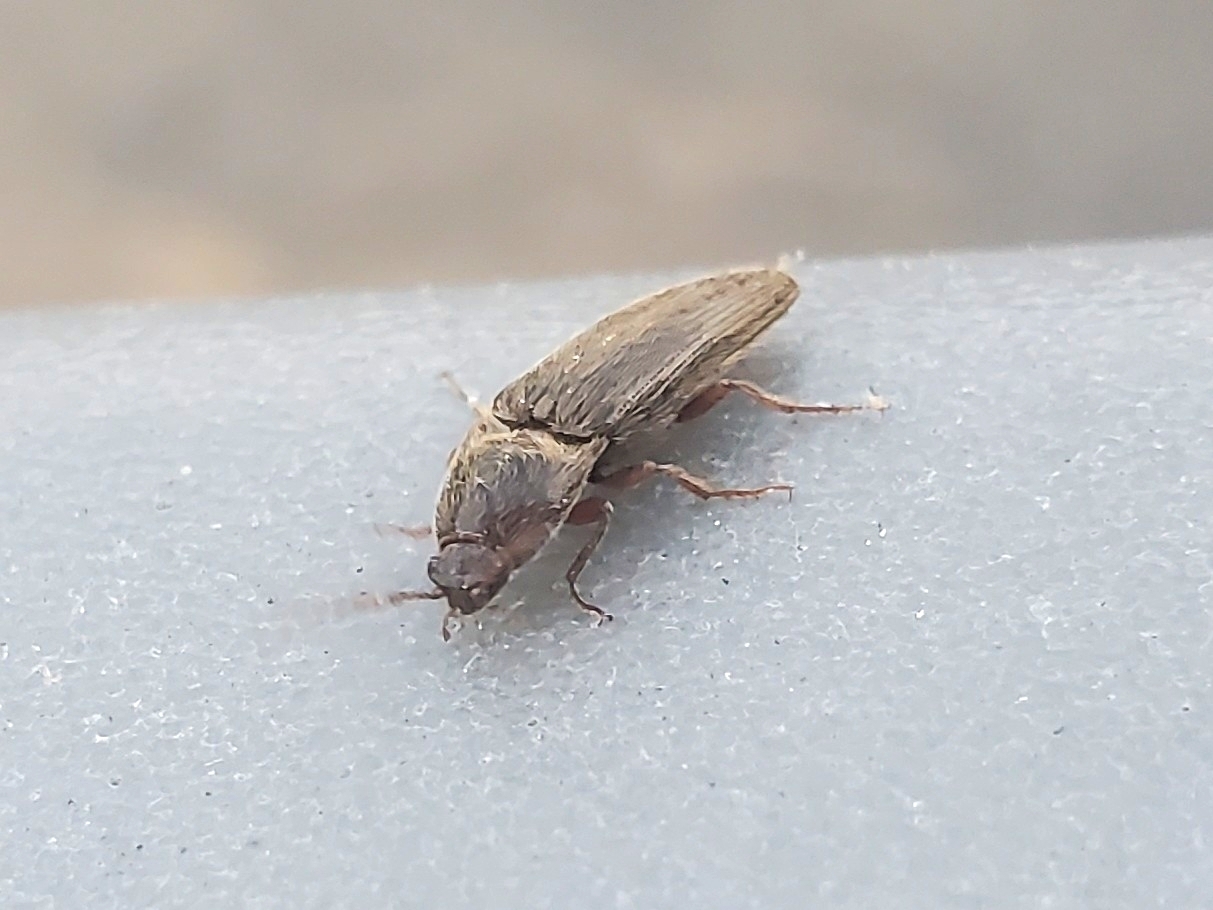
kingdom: Animalia
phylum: Arthropoda
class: Insecta
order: Coleoptera
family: Elateridae
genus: Melanotus
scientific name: Melanotus
